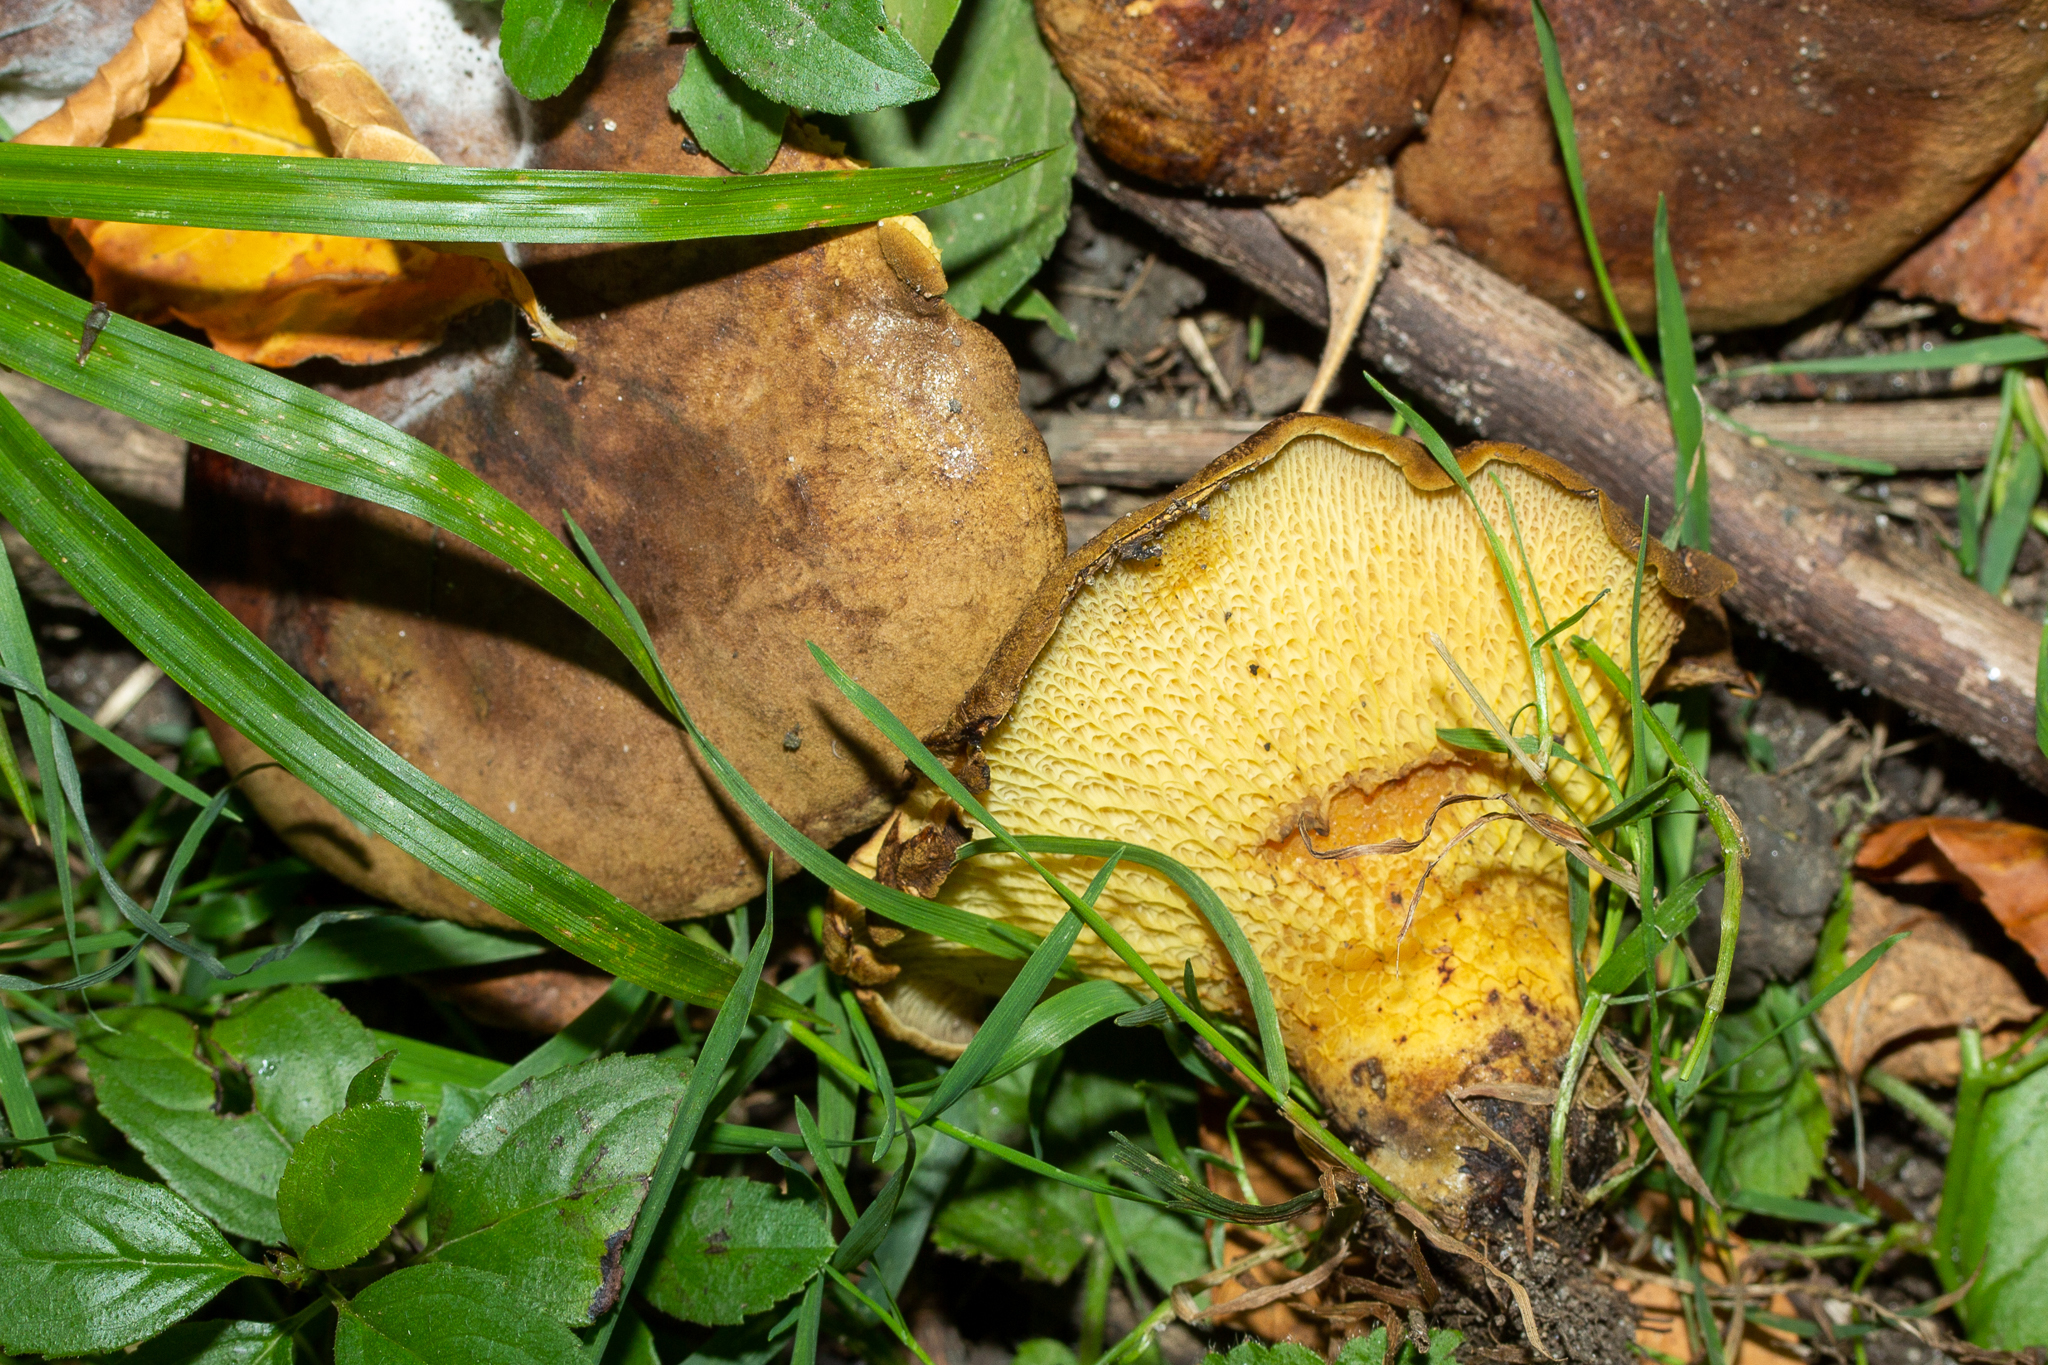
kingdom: Fungi
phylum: Basidiomycota
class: Agaricomycetes
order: Boletales
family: Boletinellaceae
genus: Boletinellus
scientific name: Boletinellus merulioides
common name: Ash tree bolete
